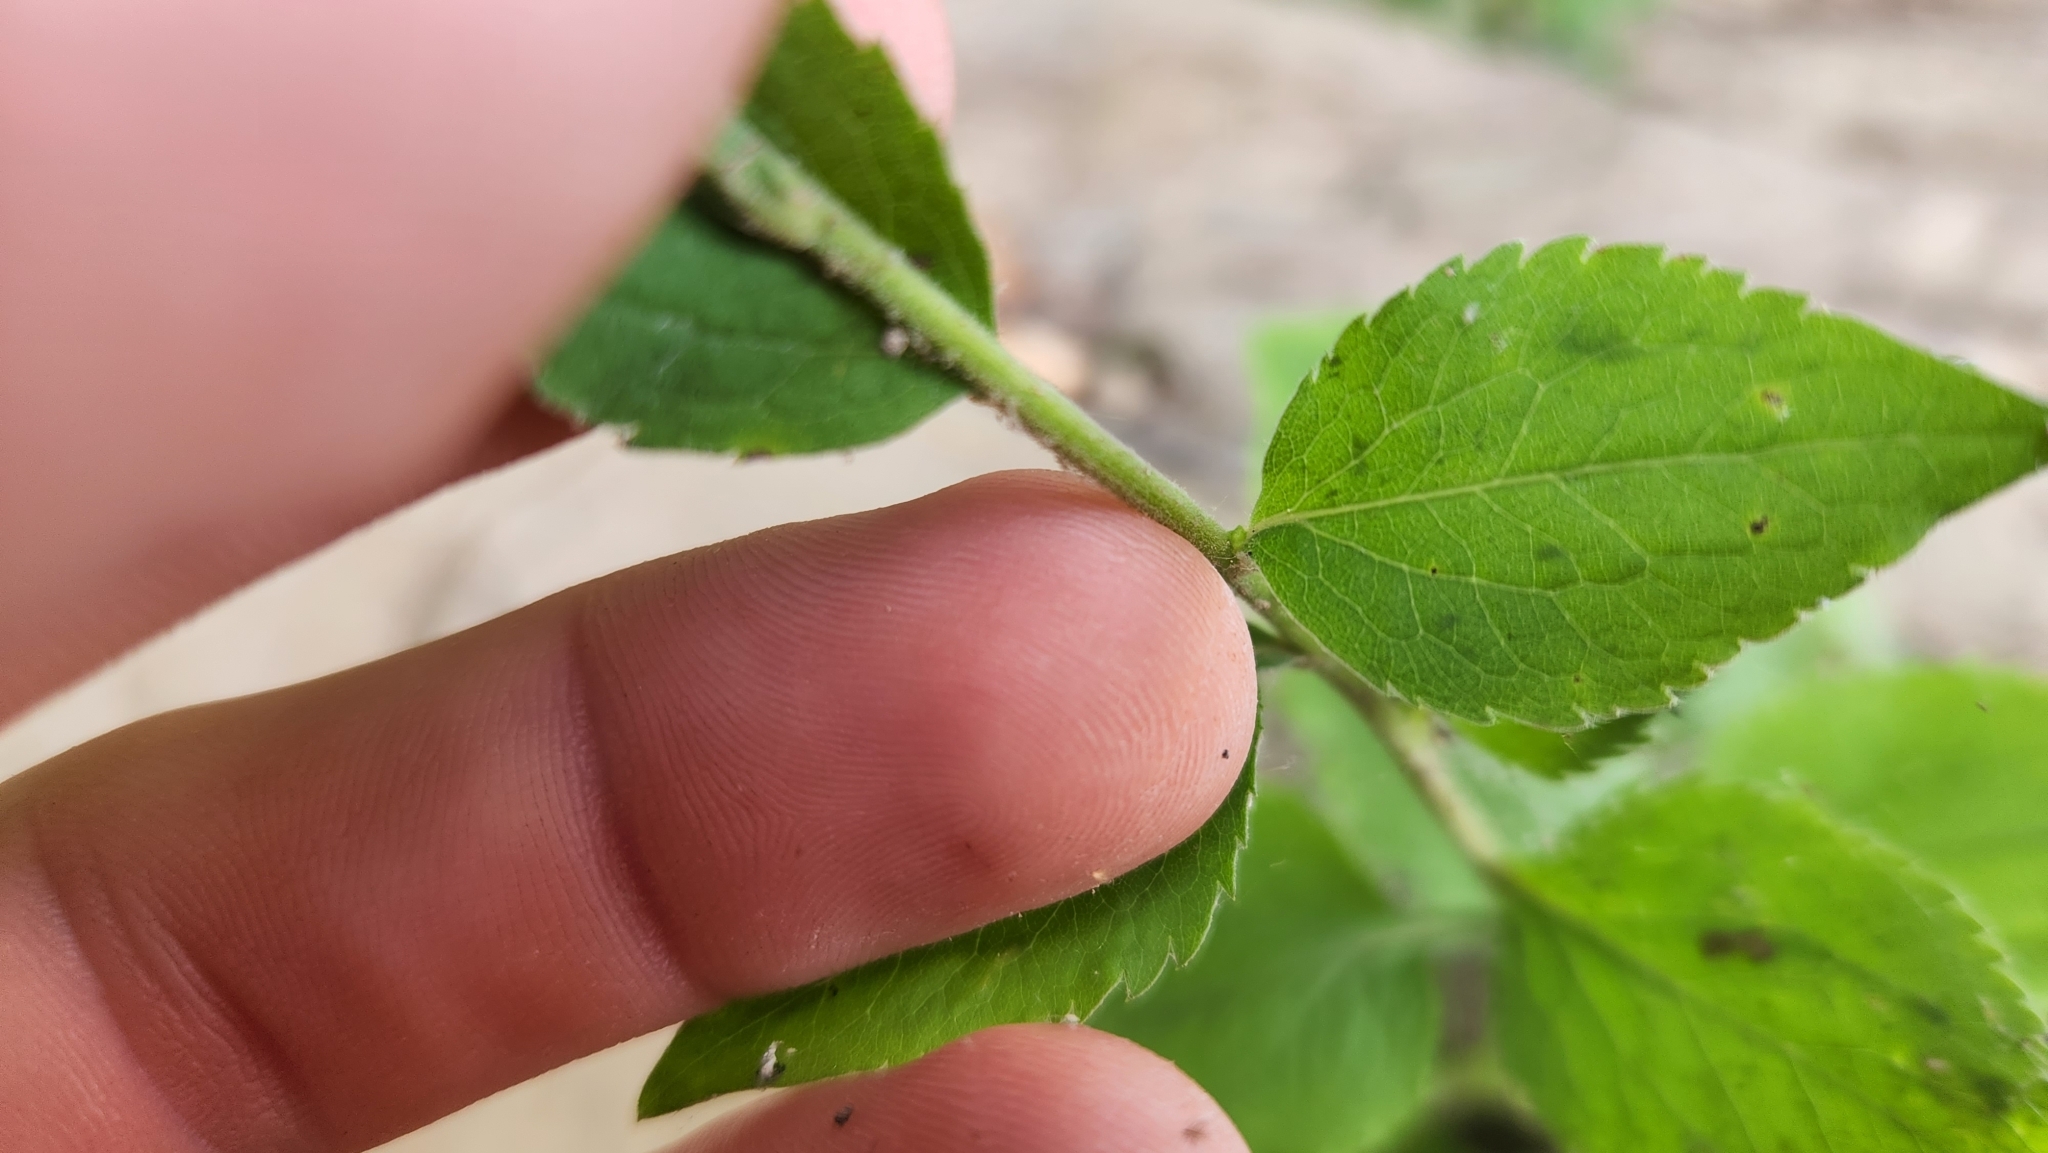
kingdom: Plantae
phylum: Tracheophyta
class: Magnoliopsida
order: Asterales
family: Asteraceae
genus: Solidago
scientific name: Solidago sphacelata
